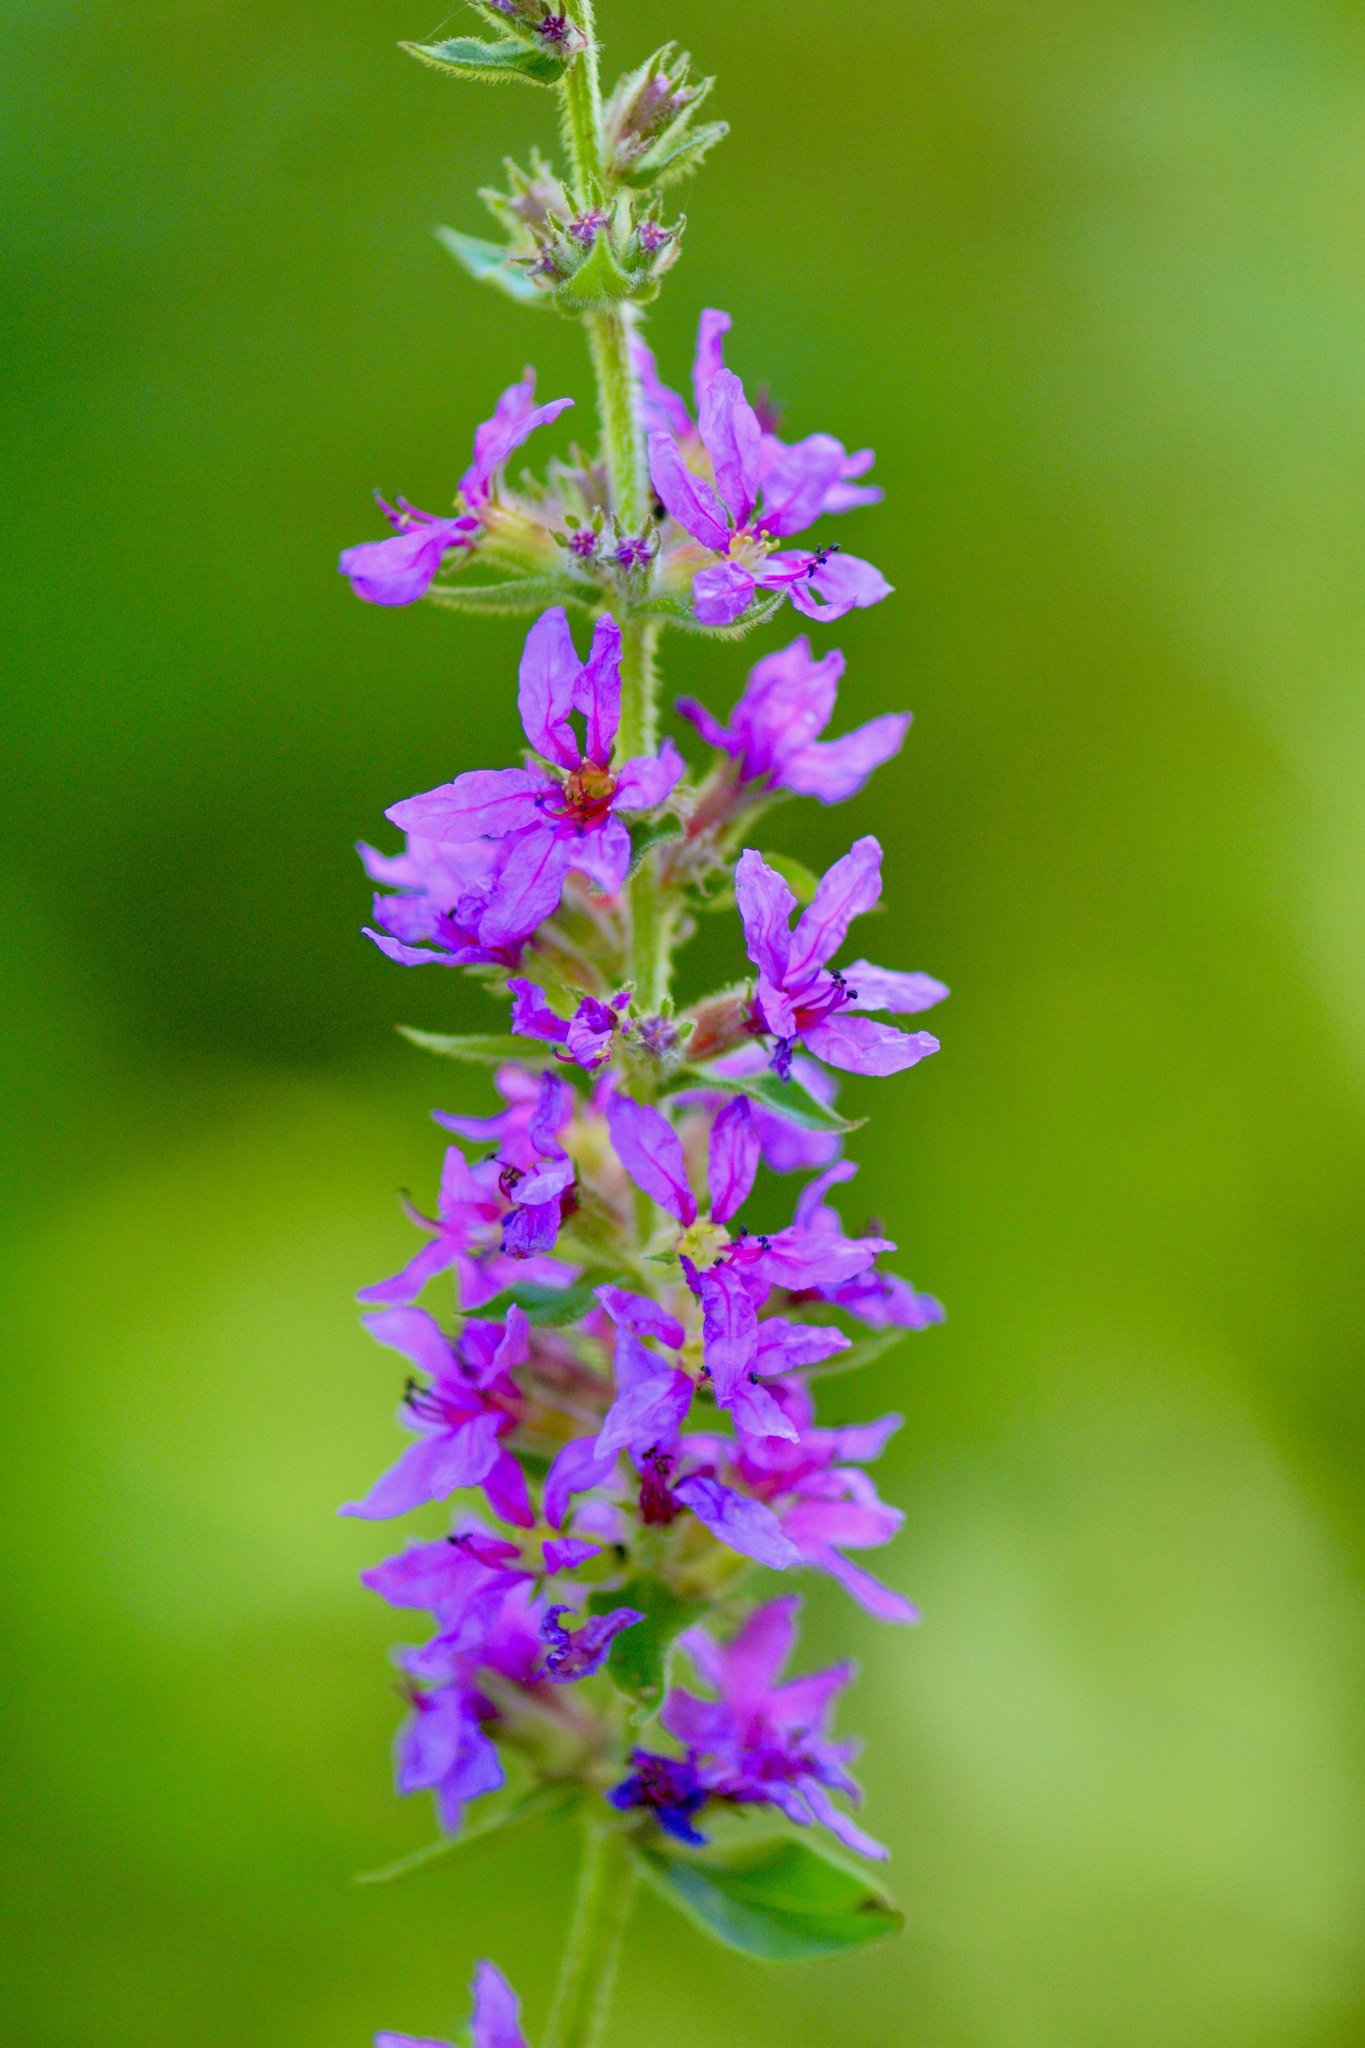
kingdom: Plantae
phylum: Tracheophyta
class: Magnoliopsida
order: Myrtales
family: Lythraceae
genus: Lythrum
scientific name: Lythrum salicaria
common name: Purple loosestrife
